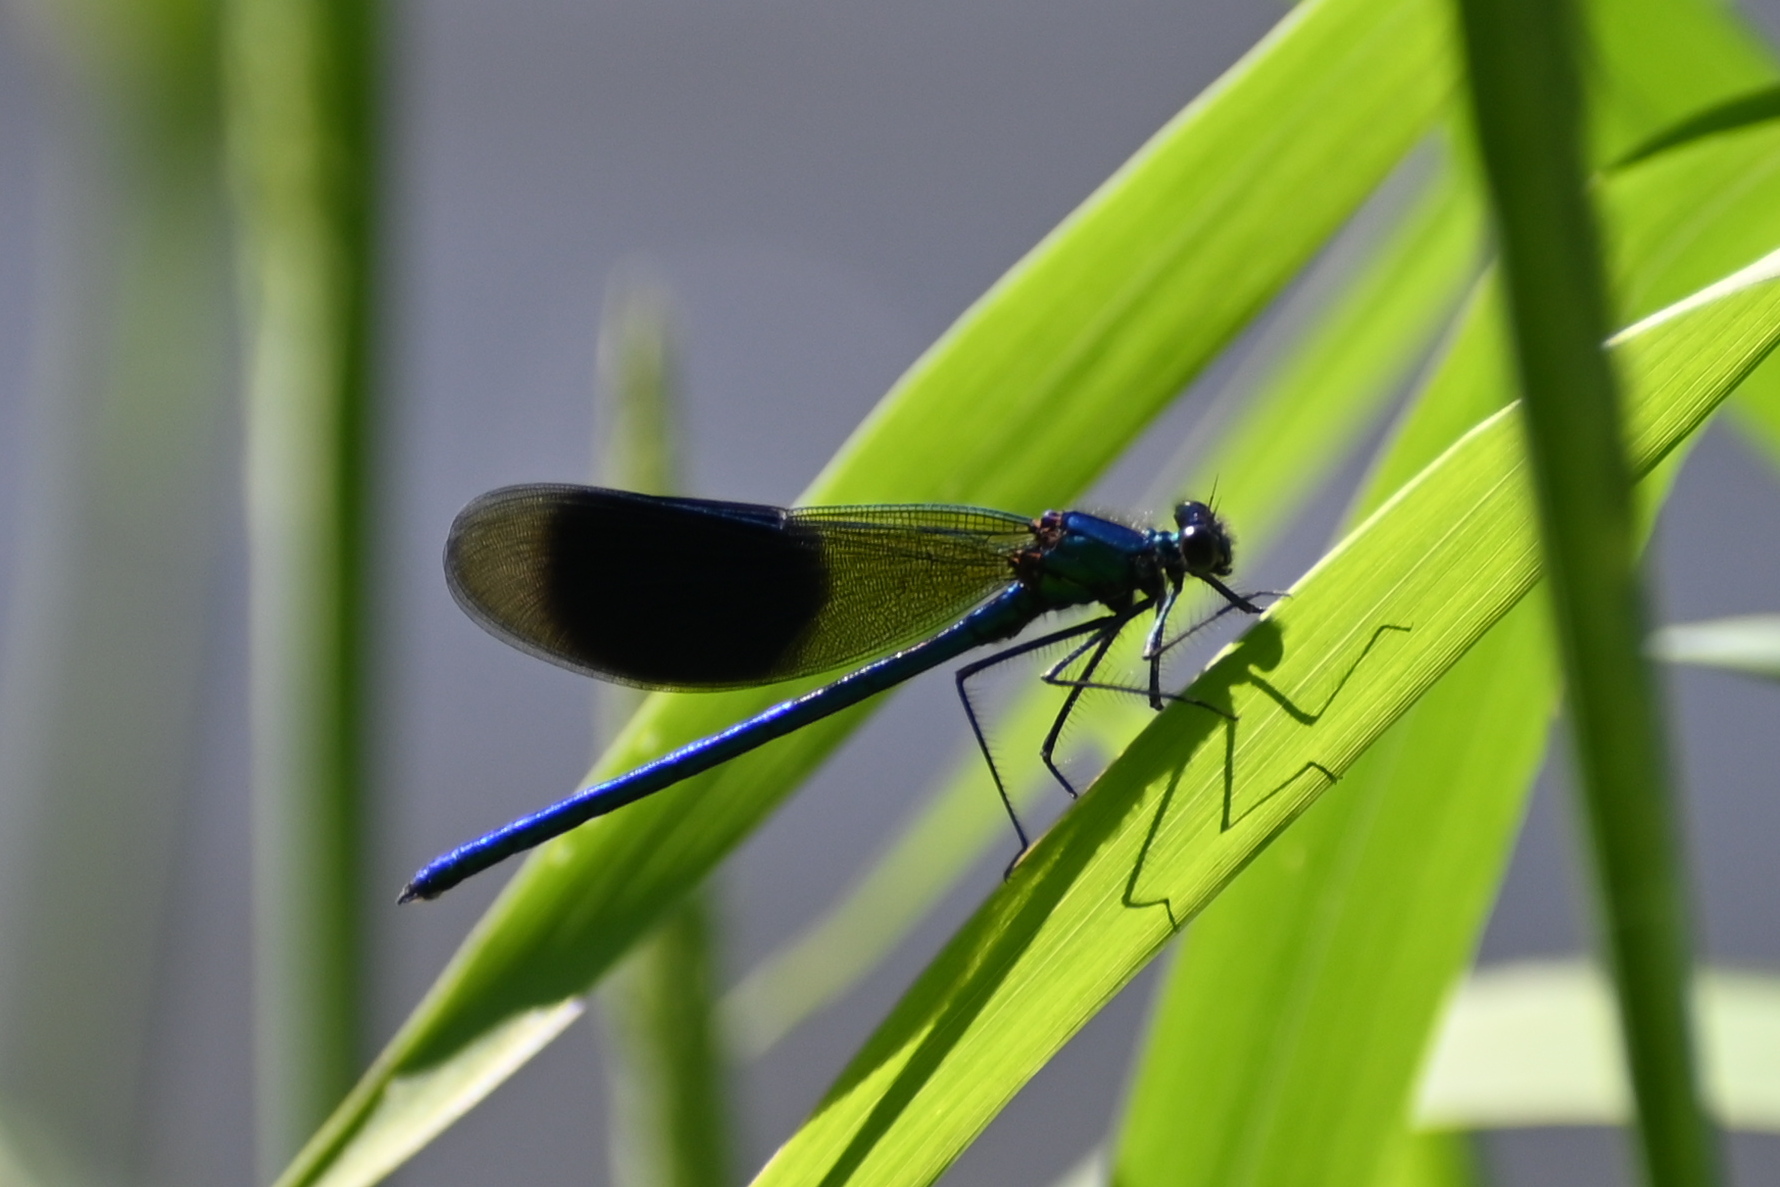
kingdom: Animalia
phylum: Arthropoda
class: Insecta
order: Odonata
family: Calopterygidae
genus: Calopteryx
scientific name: Calopteryx splendens
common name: Banded demoiselle
